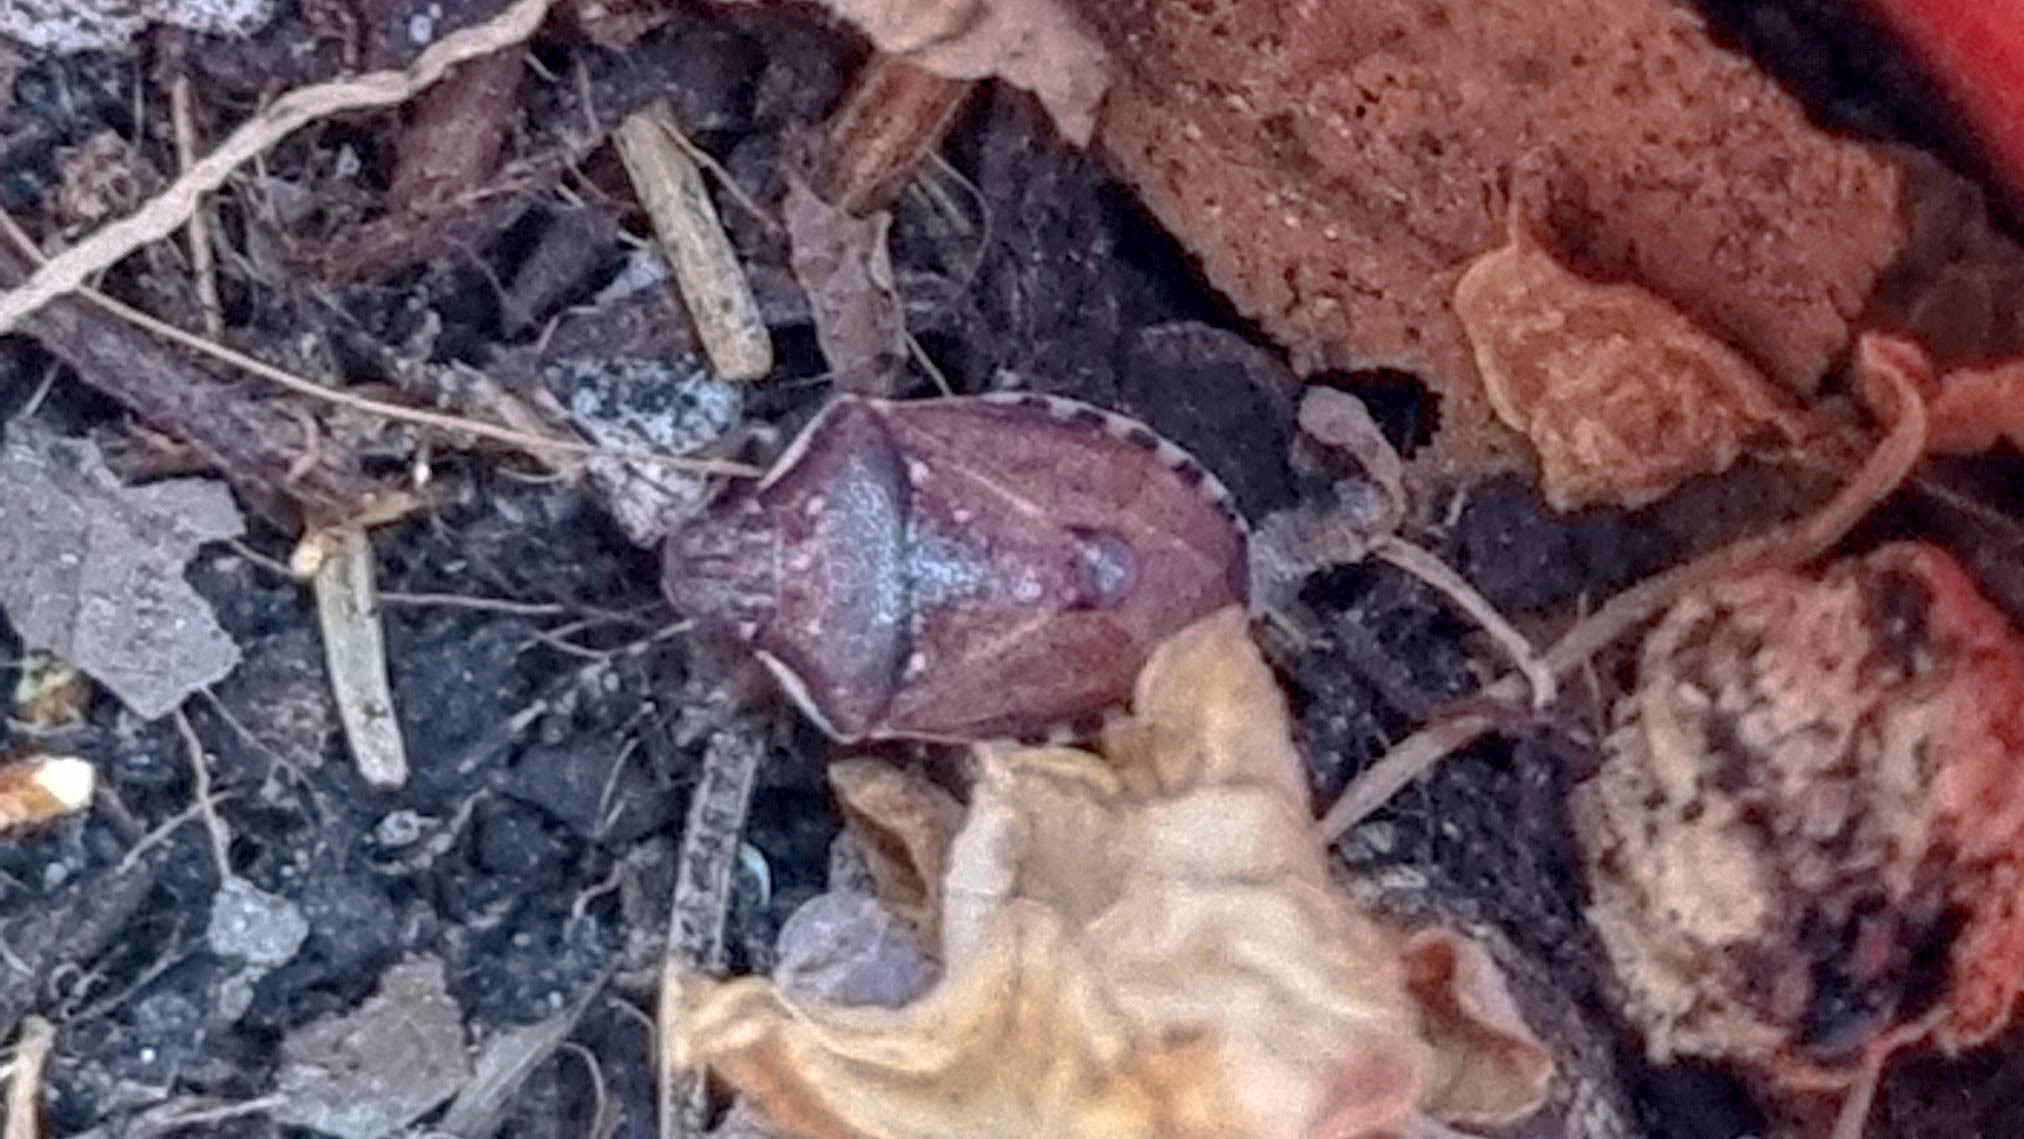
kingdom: Animalia
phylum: Arthropoda
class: Insecta
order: Hemiptera
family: Pentatomidae
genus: Holcostethus
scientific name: Holcostethus sphacelatus
